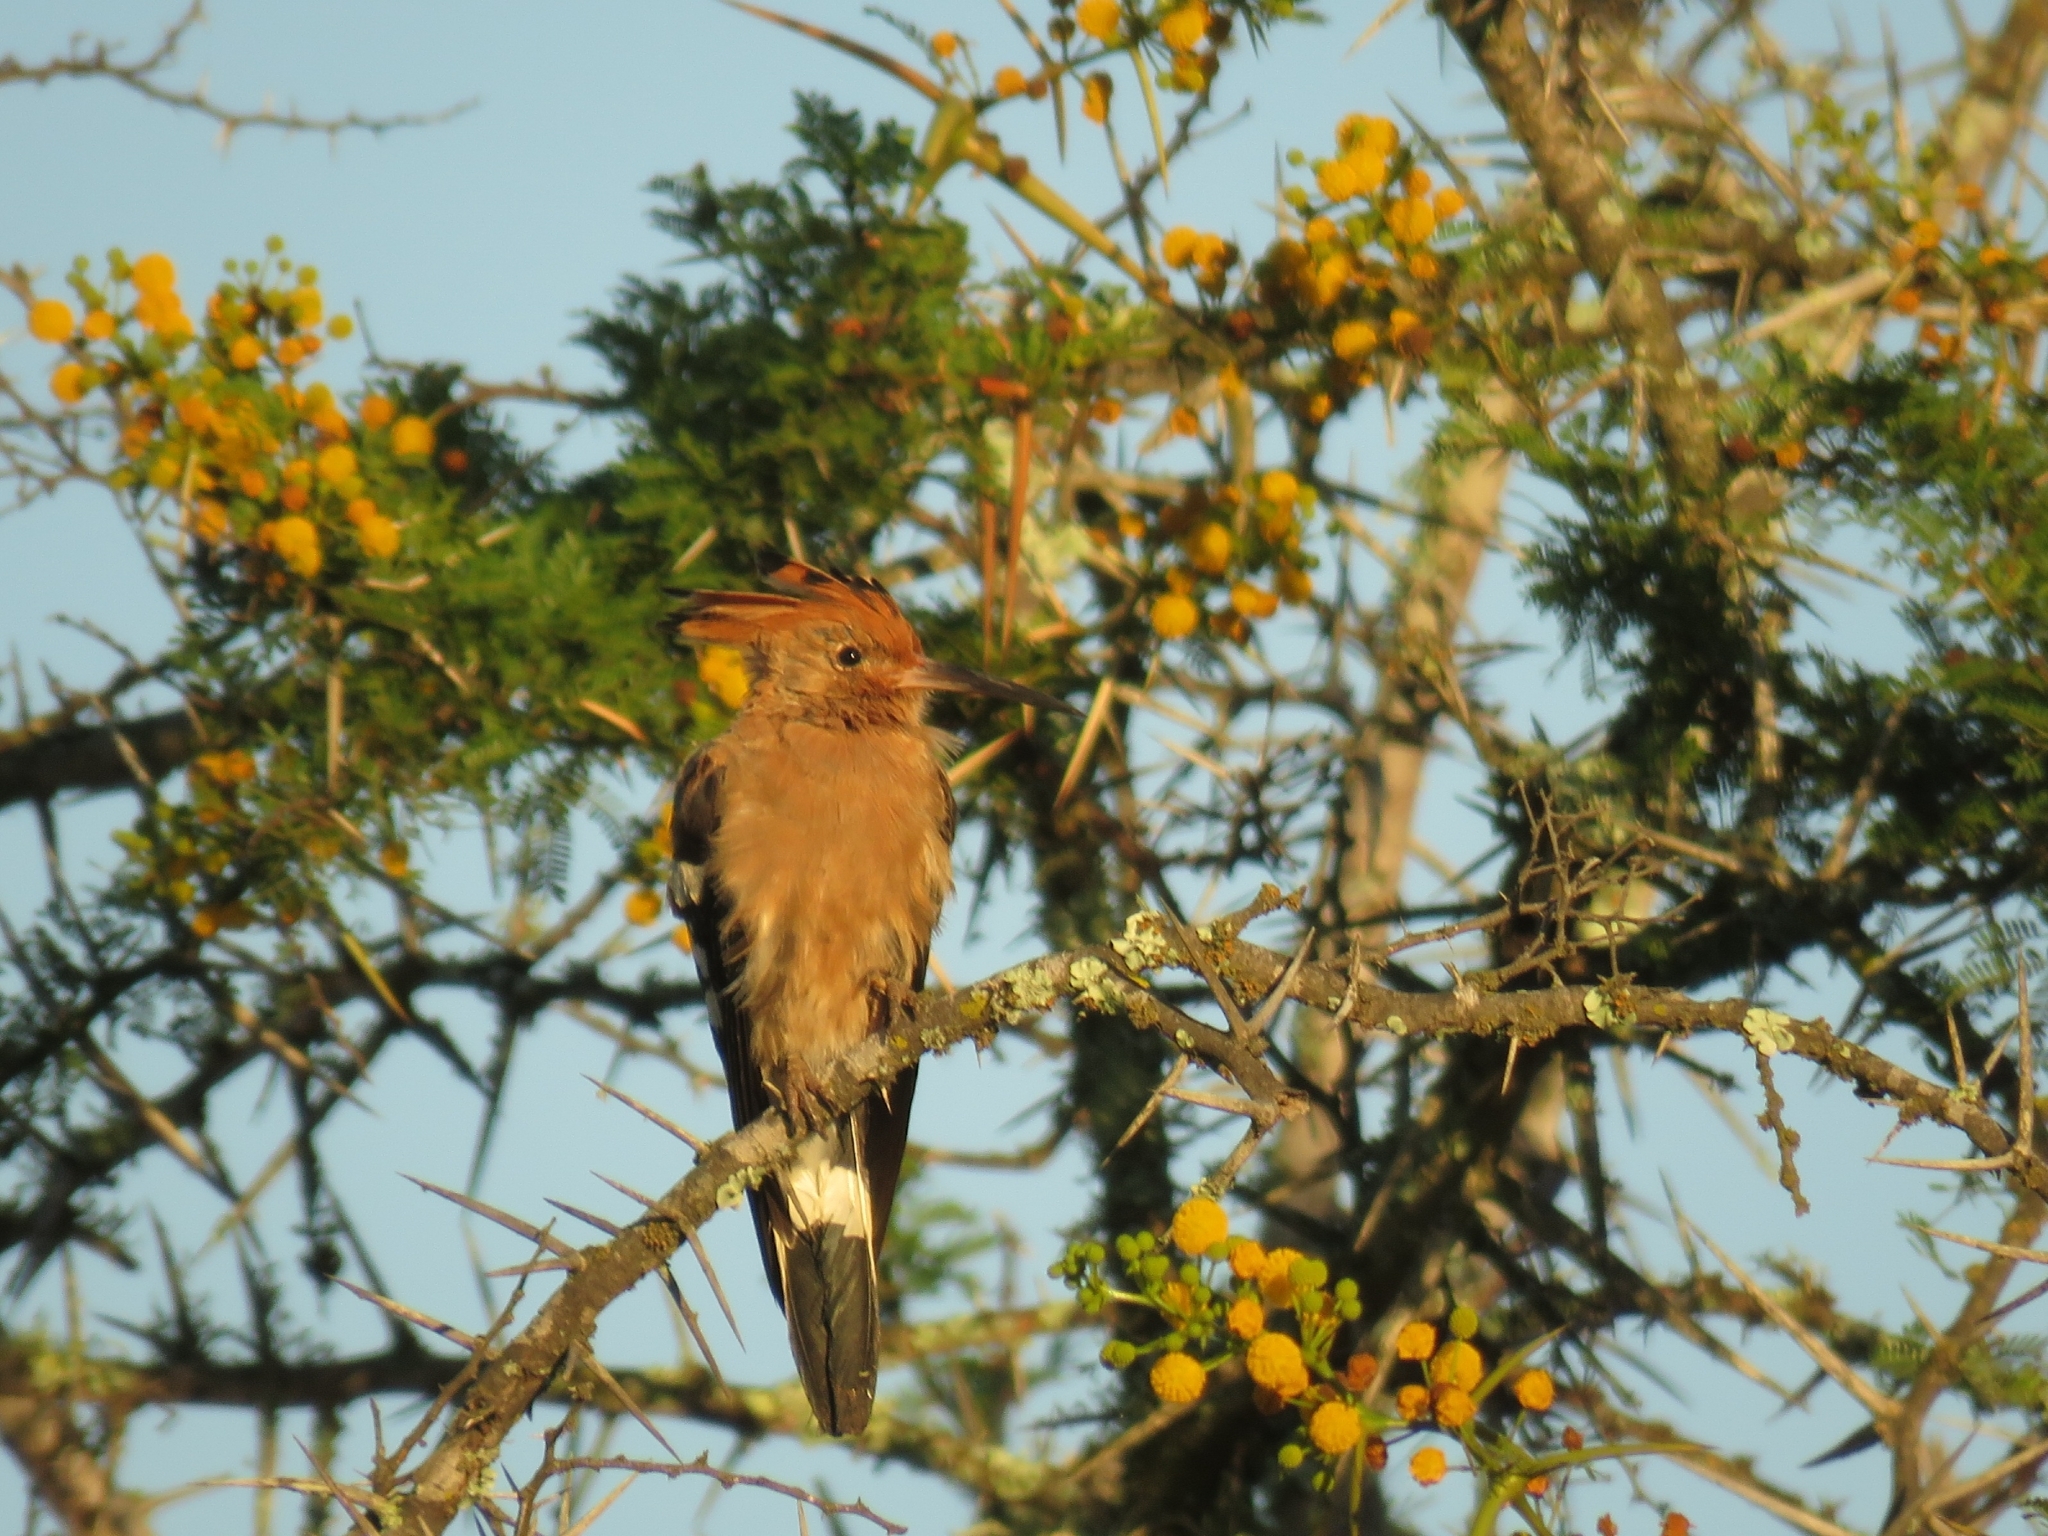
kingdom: Animalia
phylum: Chordata
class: Aves
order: Bucerotiformes
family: Upupidae
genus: Upupa
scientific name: Upupa africana
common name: African hoopoe
